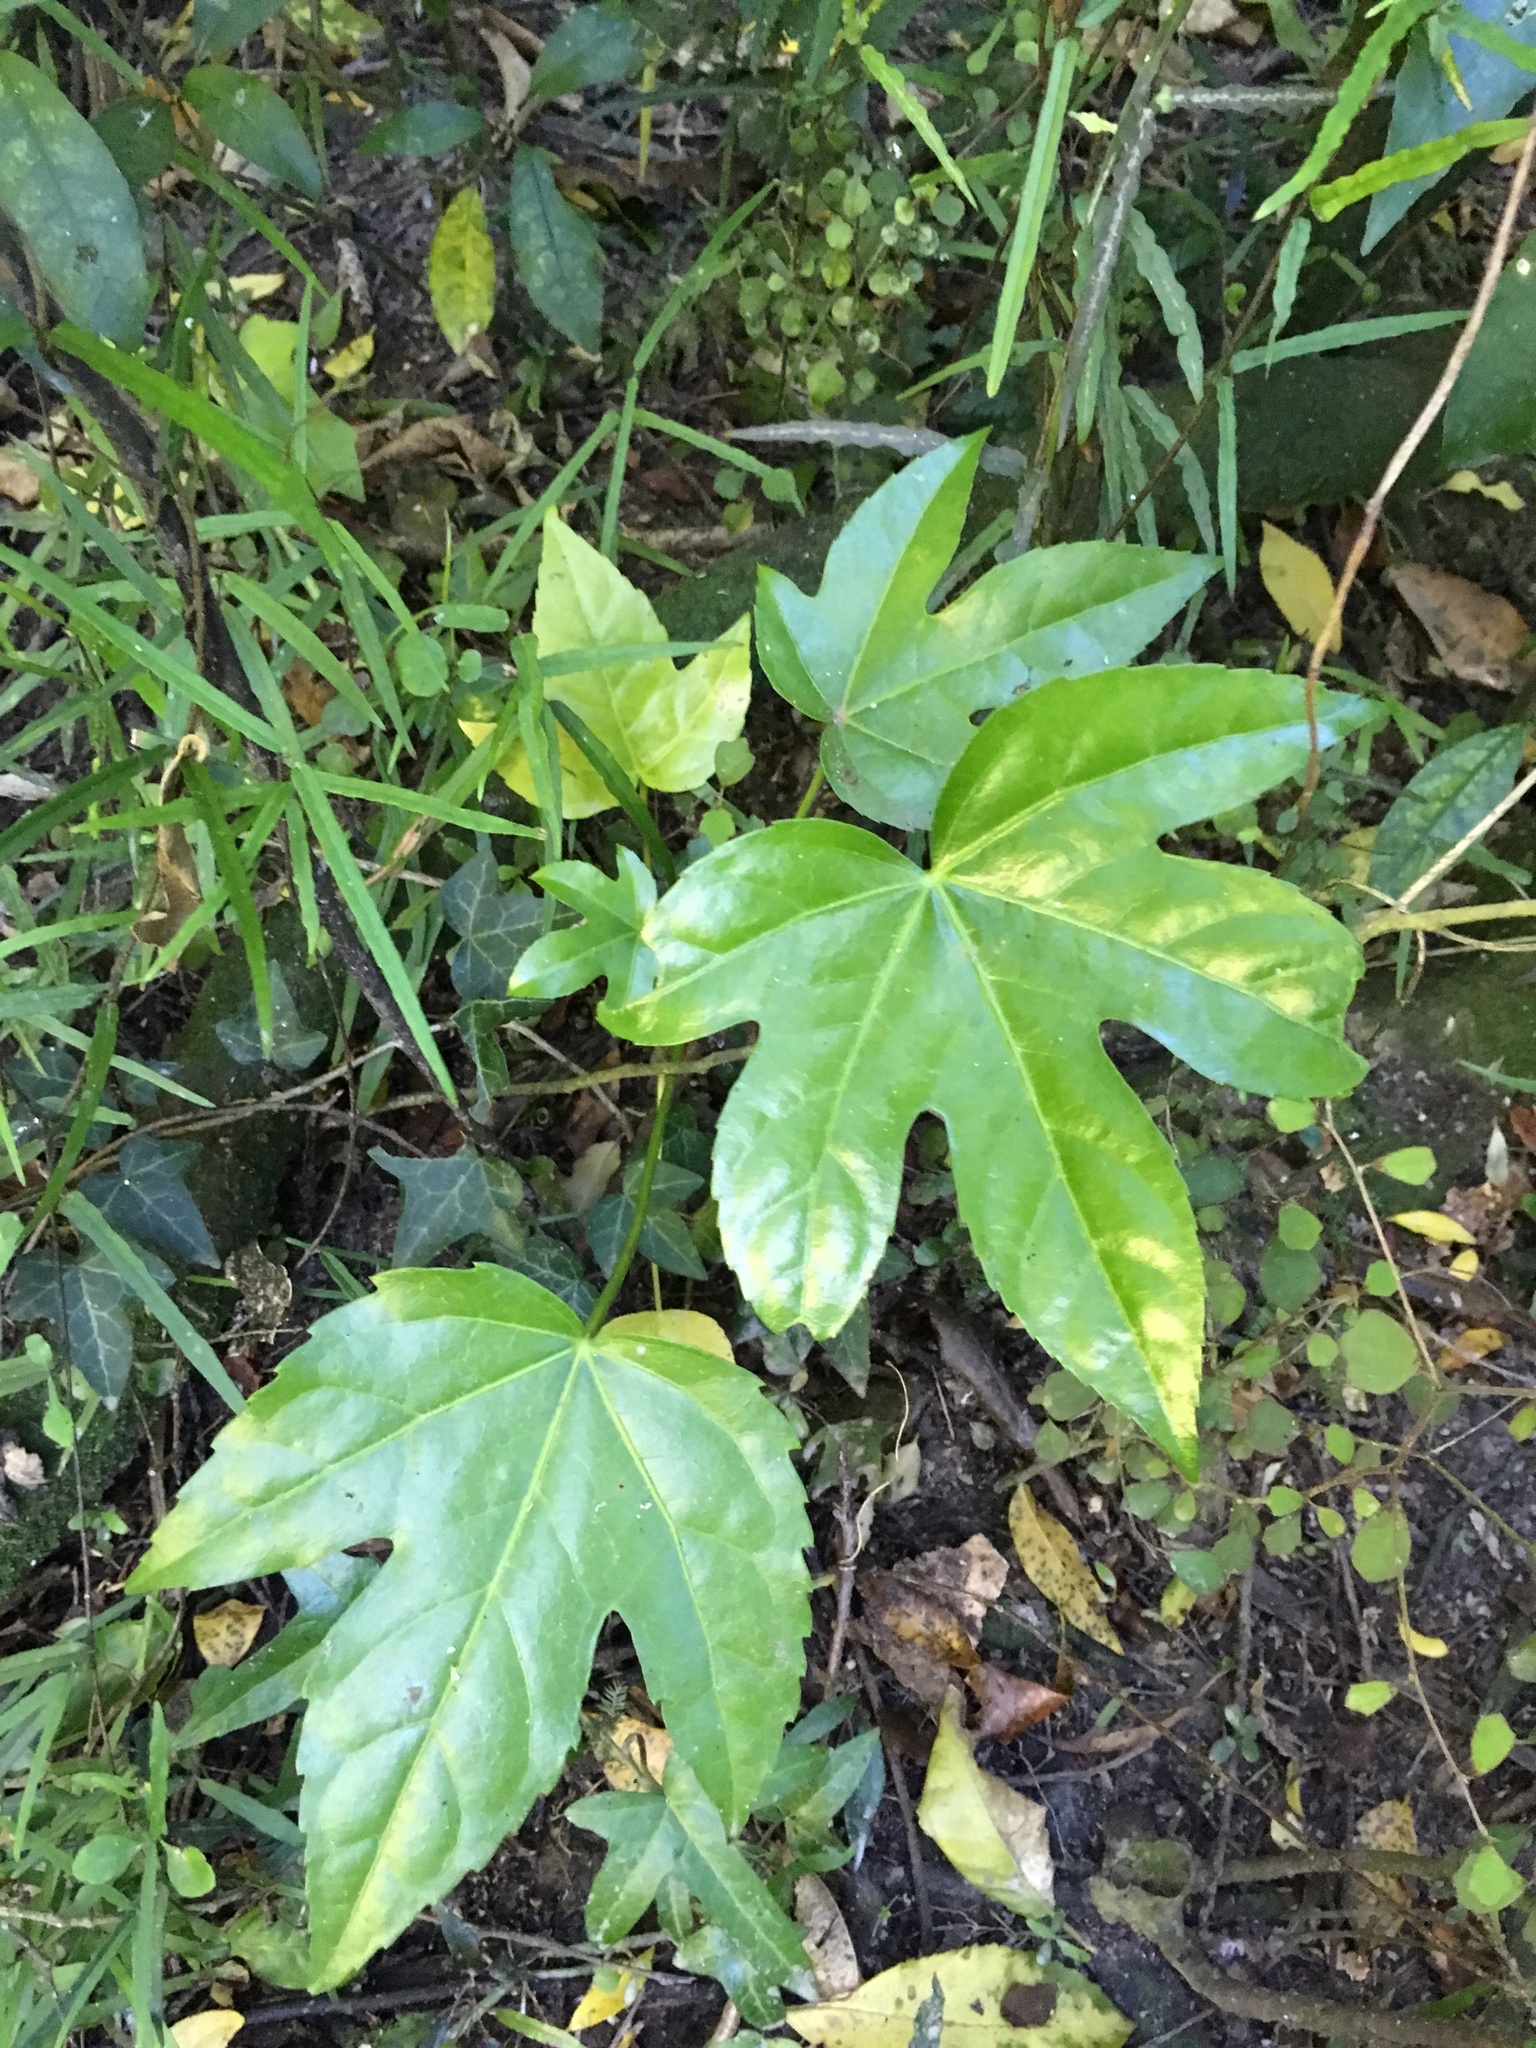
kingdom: Plantae
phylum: Tracheophyta
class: Magnoliopsida
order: Apiales
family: Araliaceae
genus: Fatsia
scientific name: Fatsia japonica
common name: Fatsia
